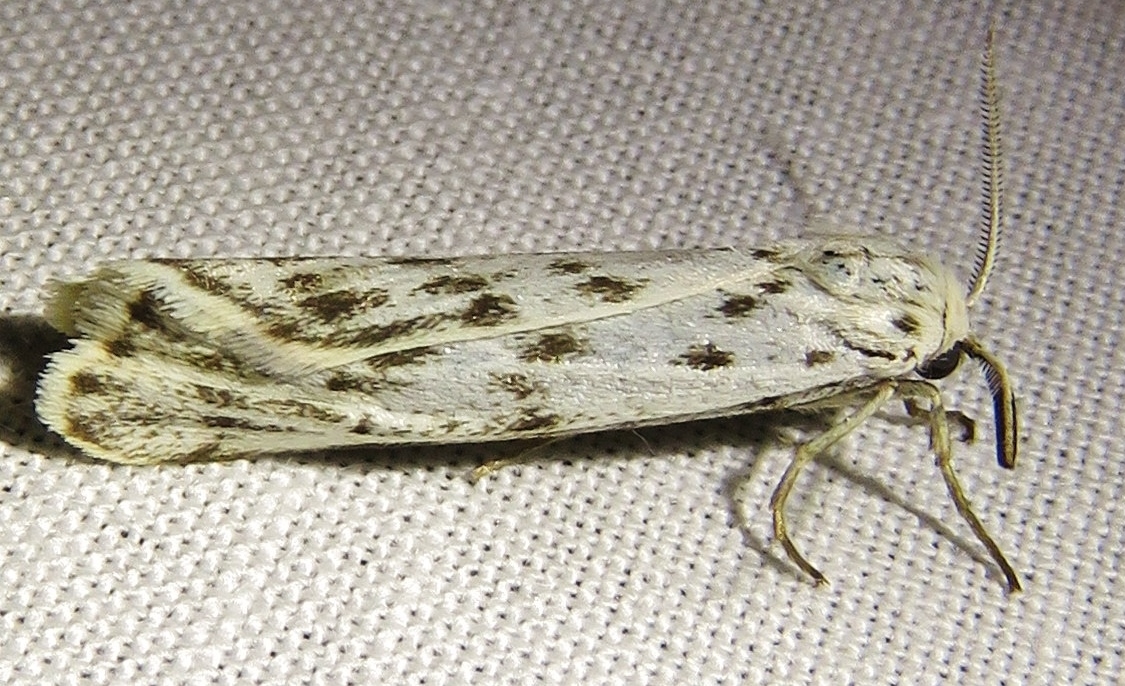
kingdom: Animalia
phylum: Arthropoda
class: Insecta
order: Lepidoptera
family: Erebidae
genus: Coscinia
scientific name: Coscinia cribraria
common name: Speckled footman
